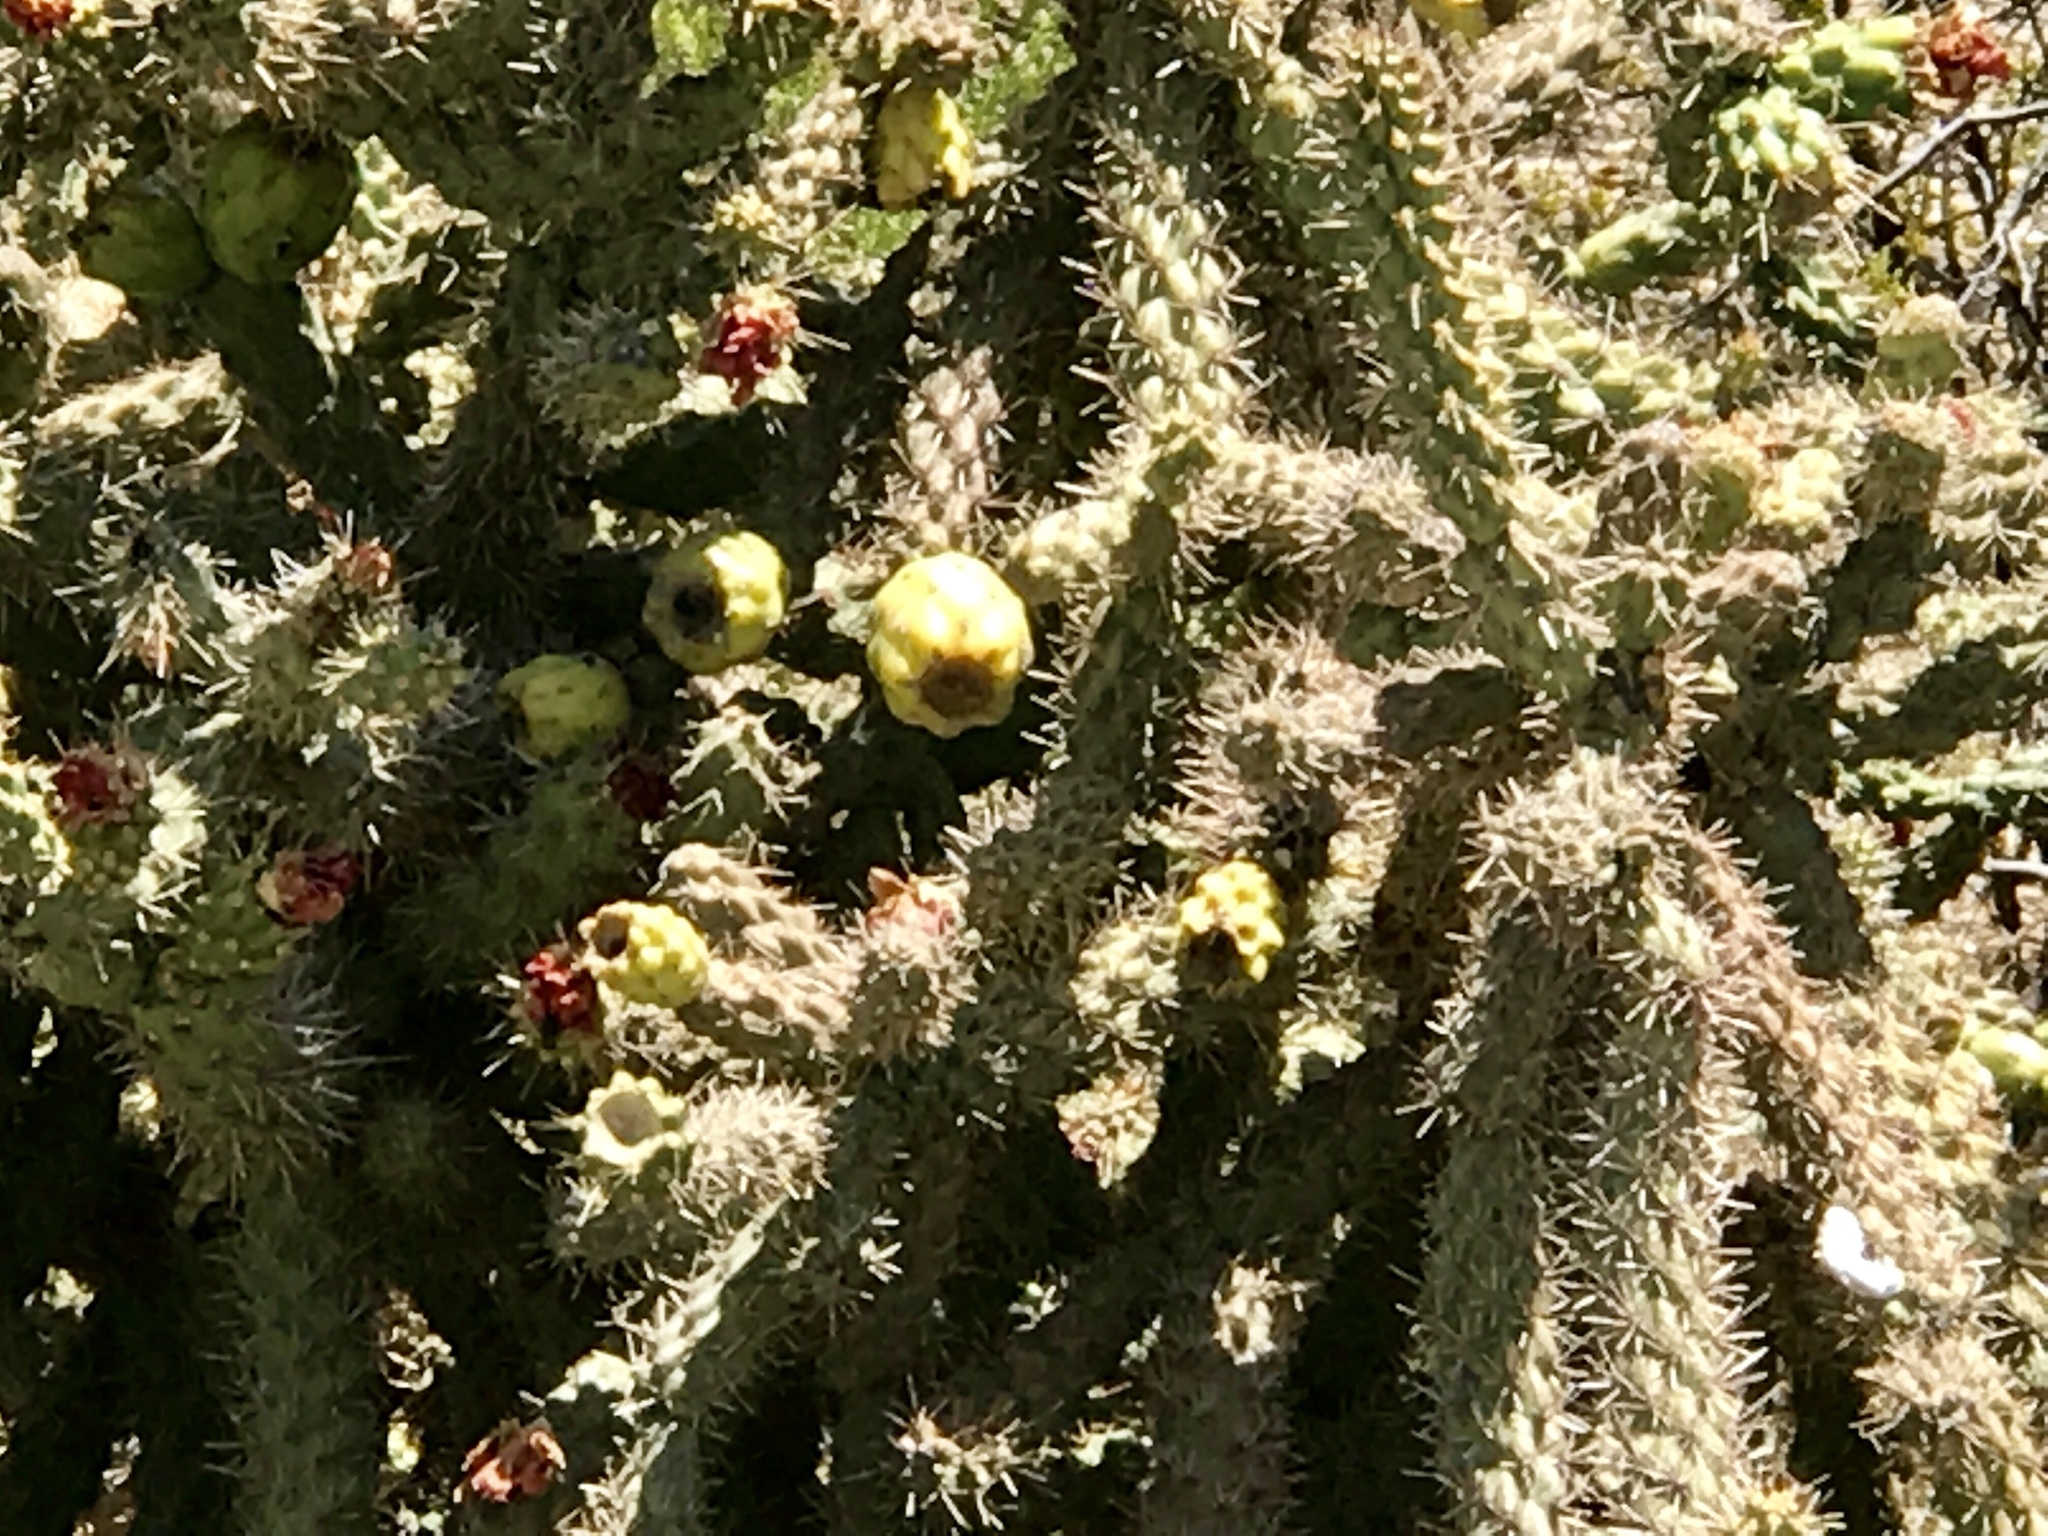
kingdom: Plantae
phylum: Tracheophyta
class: Magnoliopsida
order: Caryophyllales
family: Cactaceae
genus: Cylindropuntia
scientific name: Cylindropuntia imbricata
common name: Candelabrum cactus
